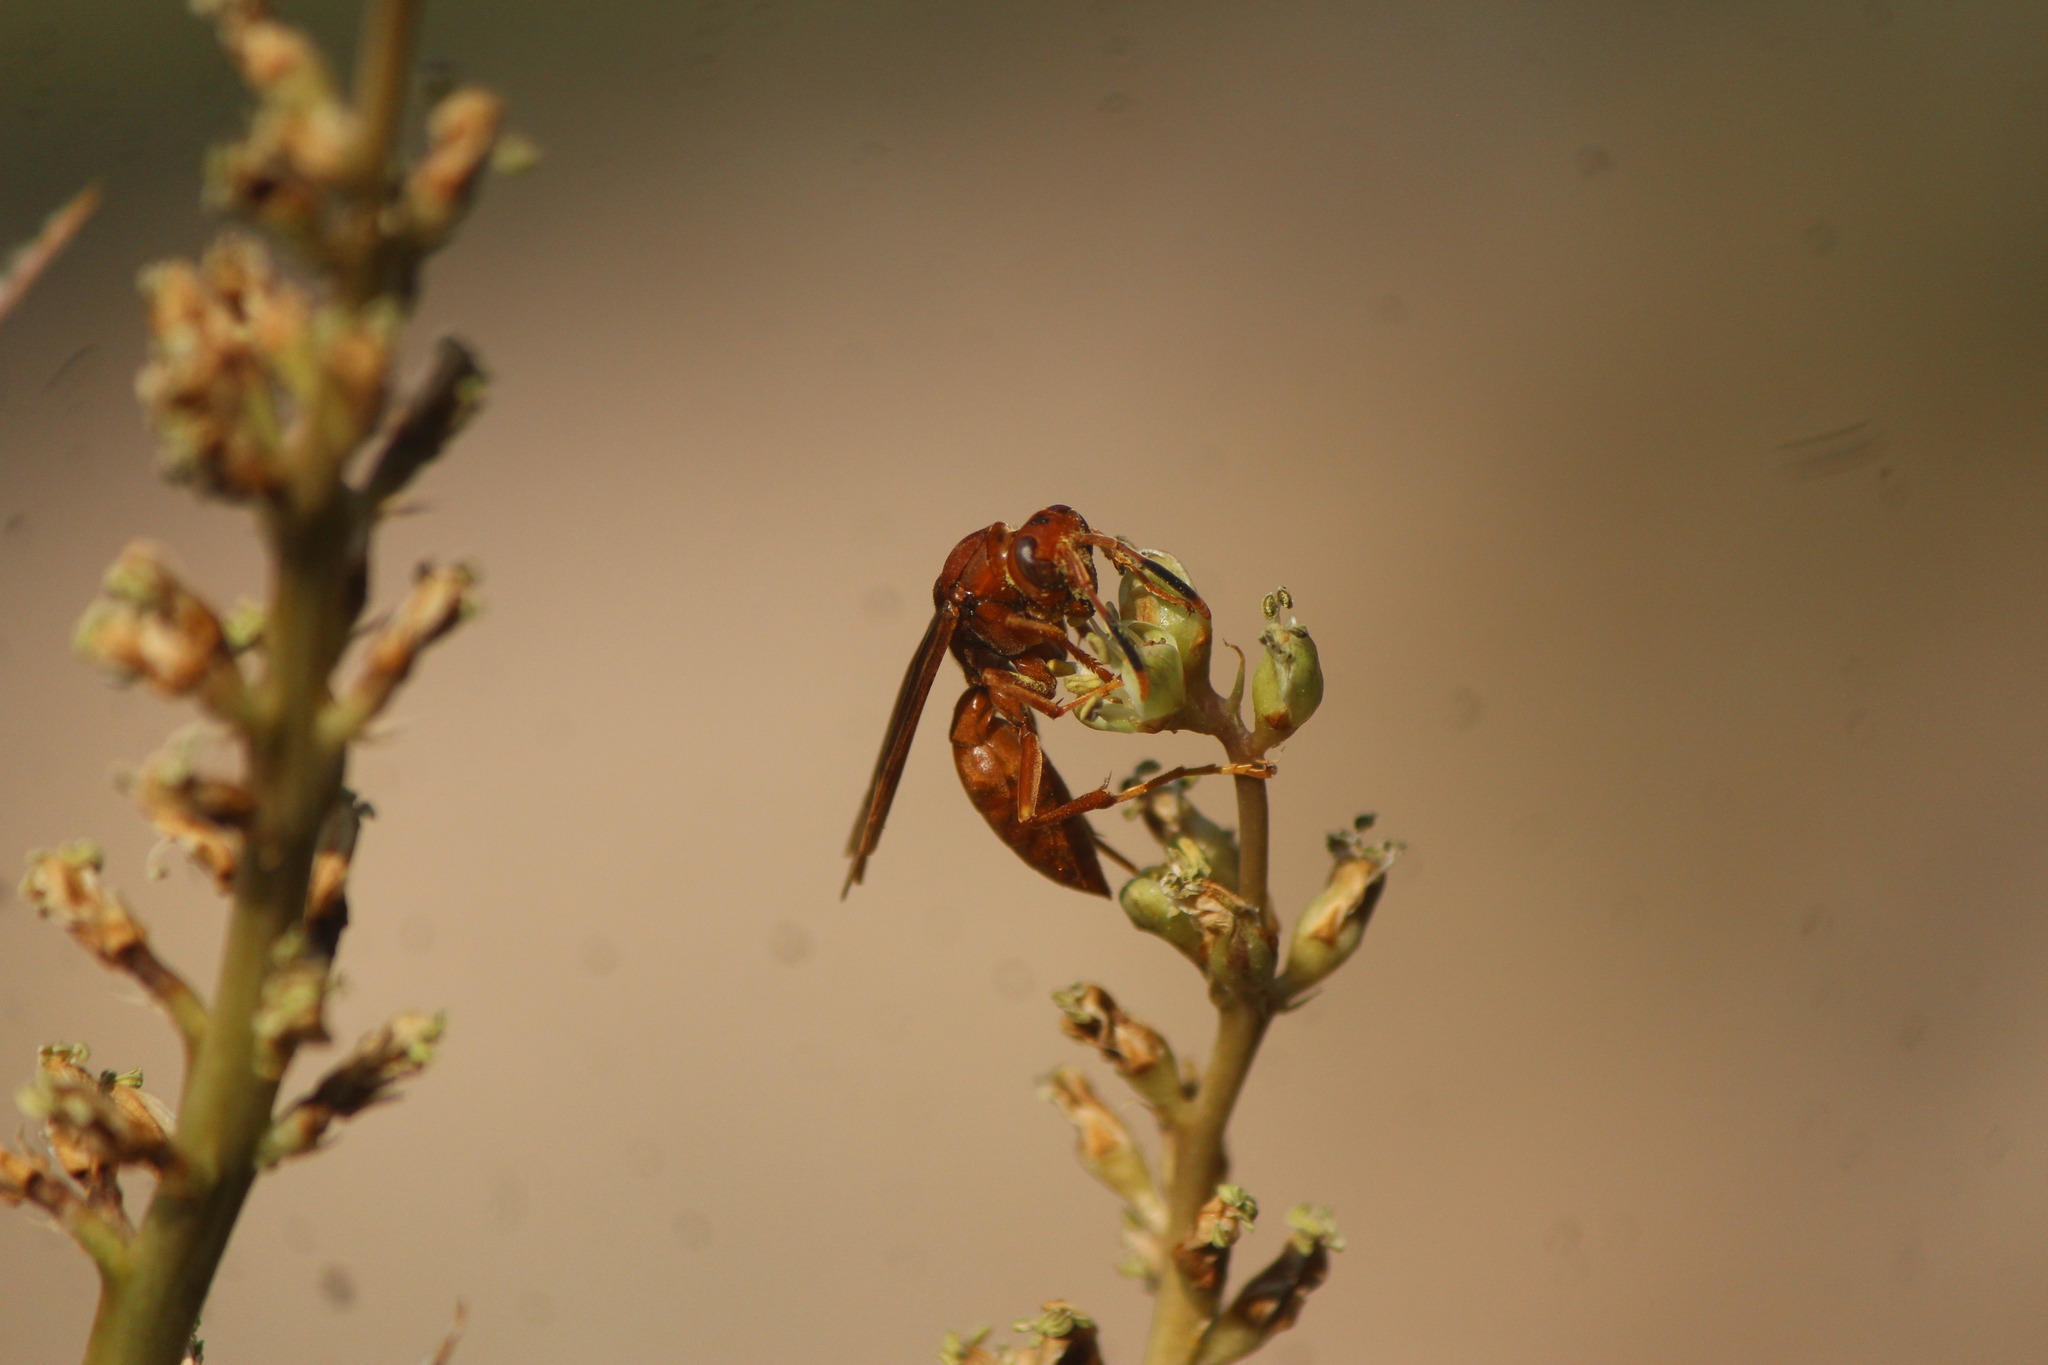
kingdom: Animalia
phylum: Arthropoda
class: Insecta
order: Hymenoptera
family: Eumenidae
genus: Polistes
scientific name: Polistes canadensis
